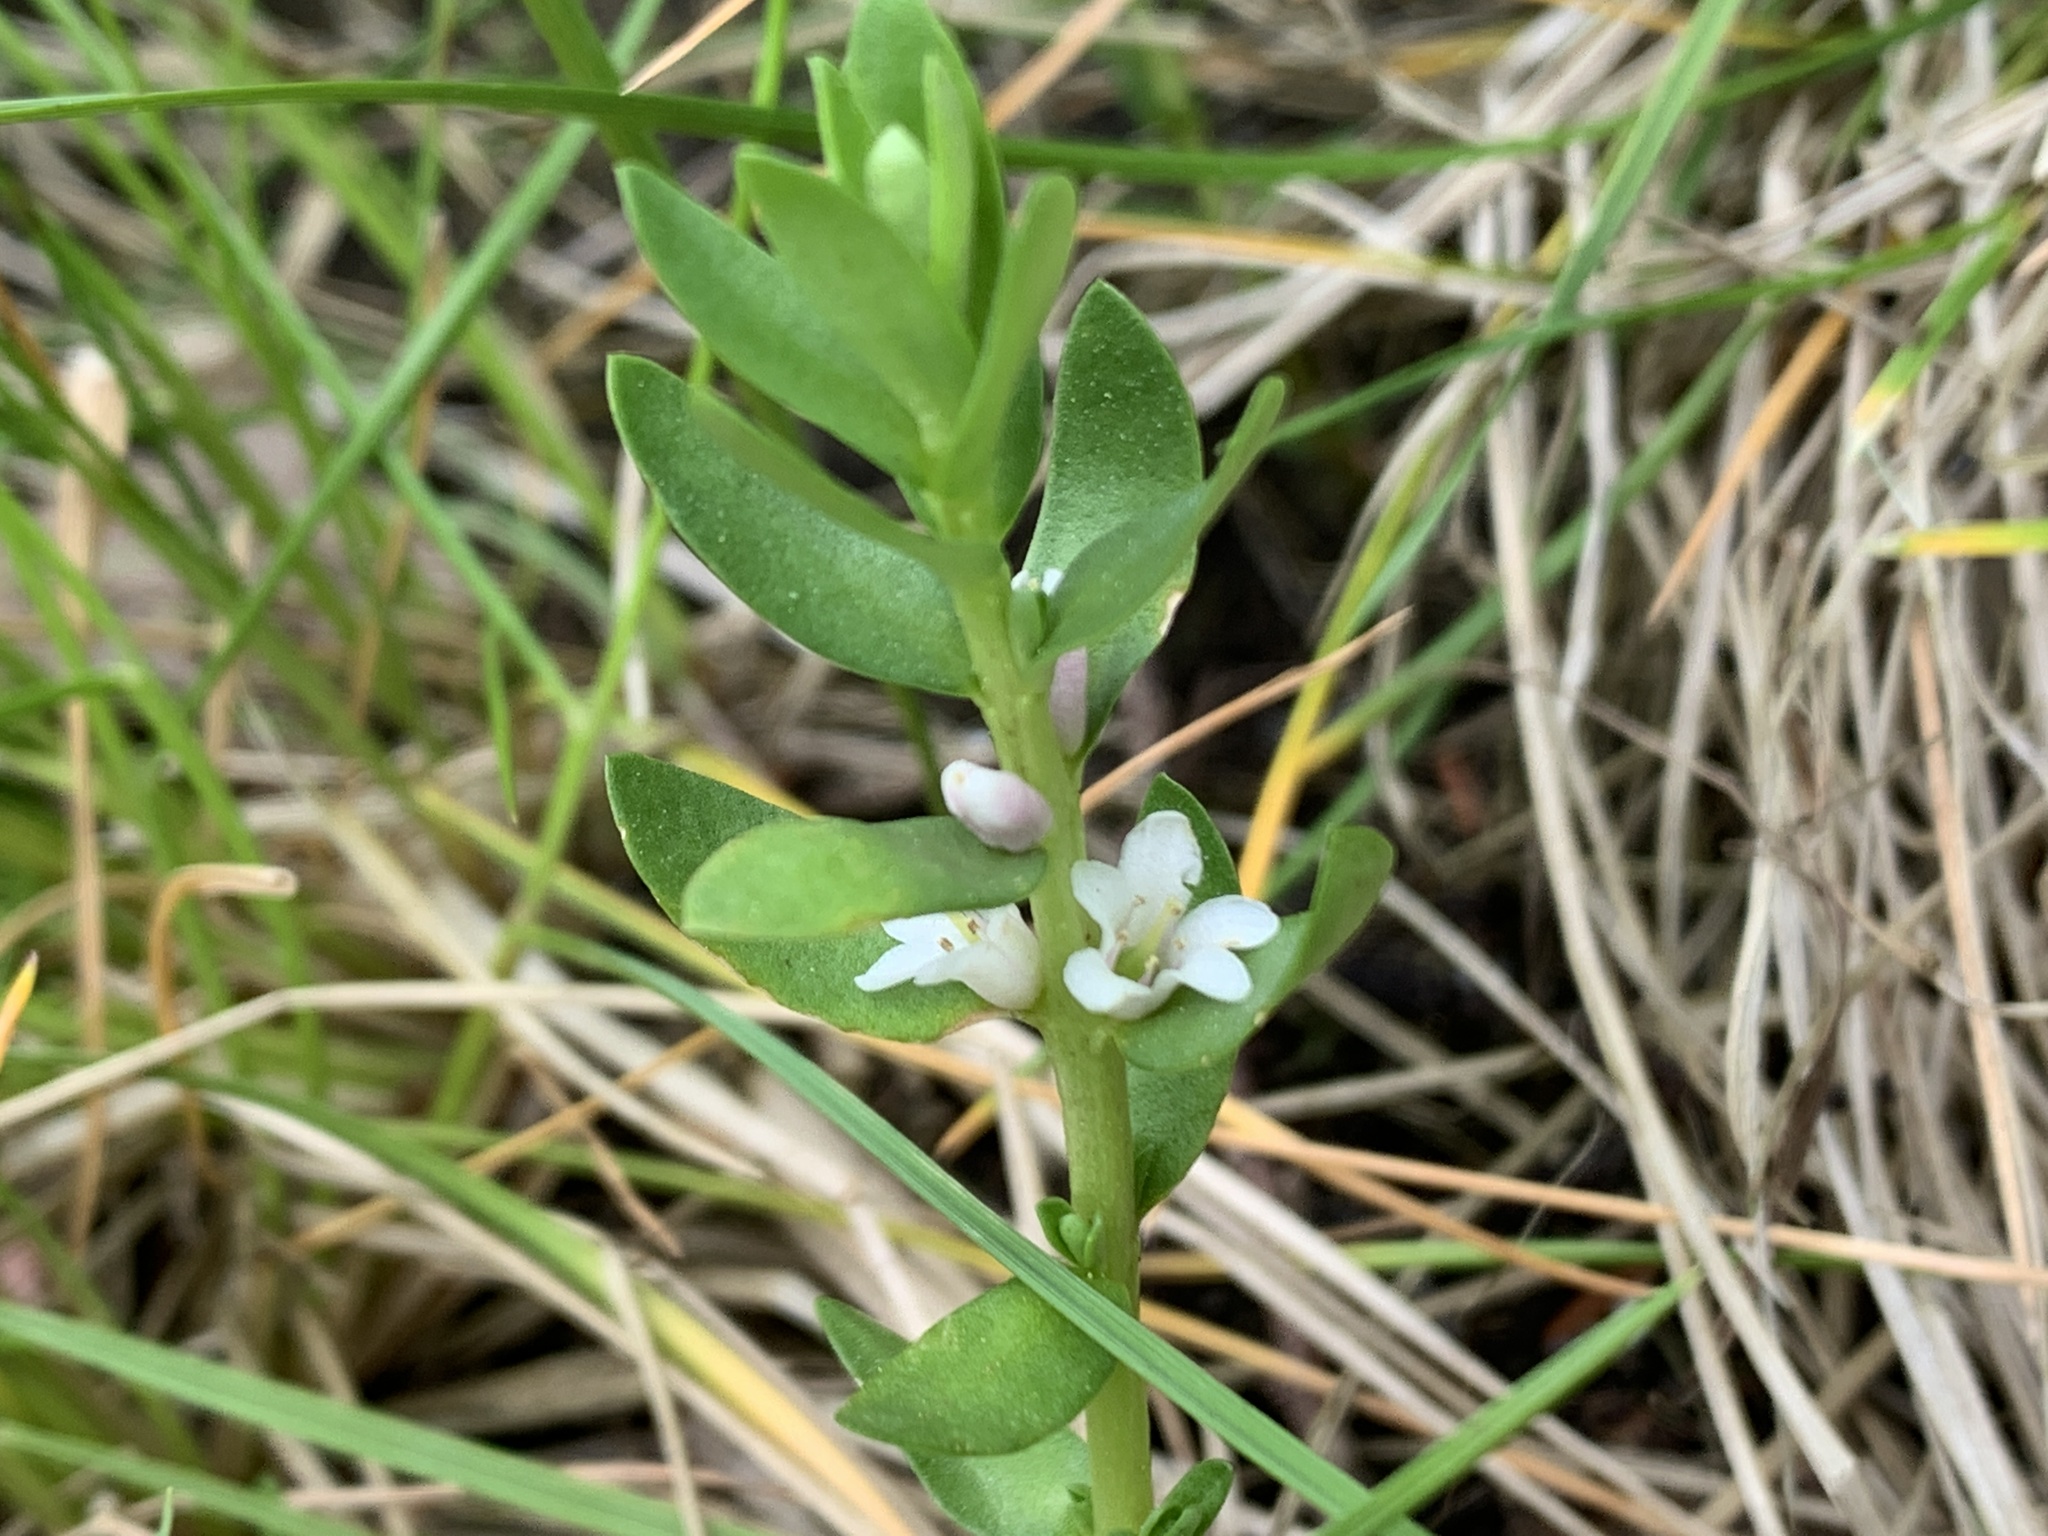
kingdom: Plantae
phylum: Tracheophyta
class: Magnoliopsida
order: Ericales
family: Primulaceae
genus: Lysimachia
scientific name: Lysimachia maritima
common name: Sea milkwort
